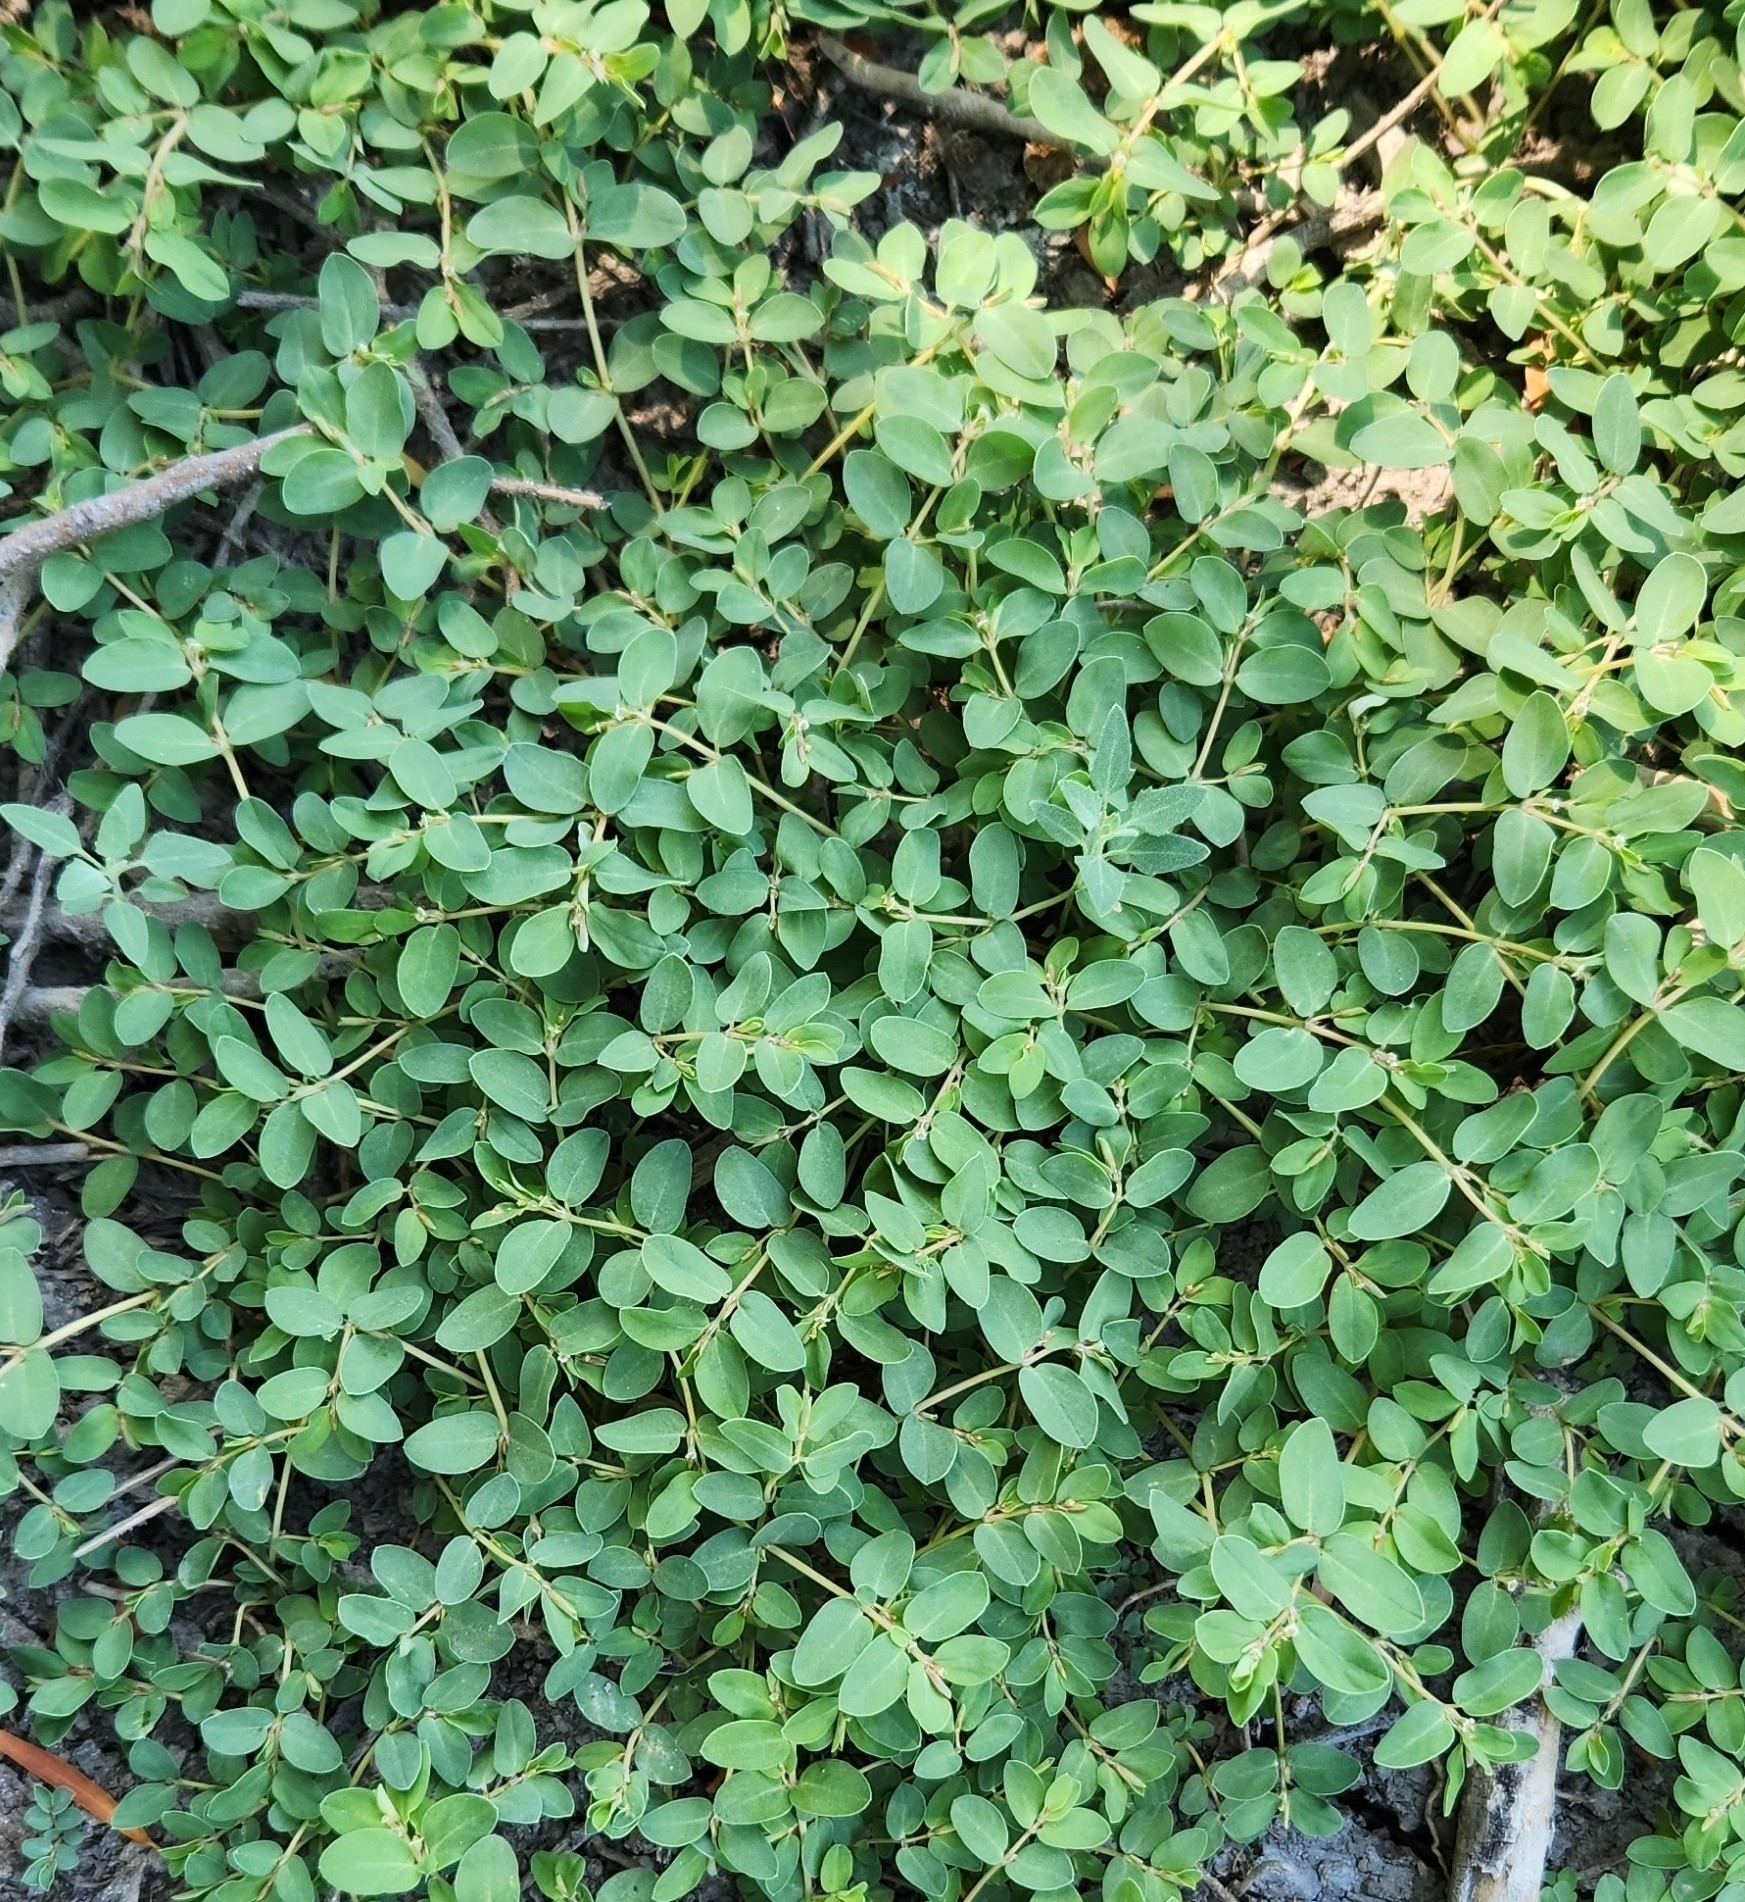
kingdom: Plantae
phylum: Tracheophyta
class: Magnoliopsida
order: Malpighiales
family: Euphorbiaceae
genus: Euphorbia
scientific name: Euphorbia serpens
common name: Matted sandmat
